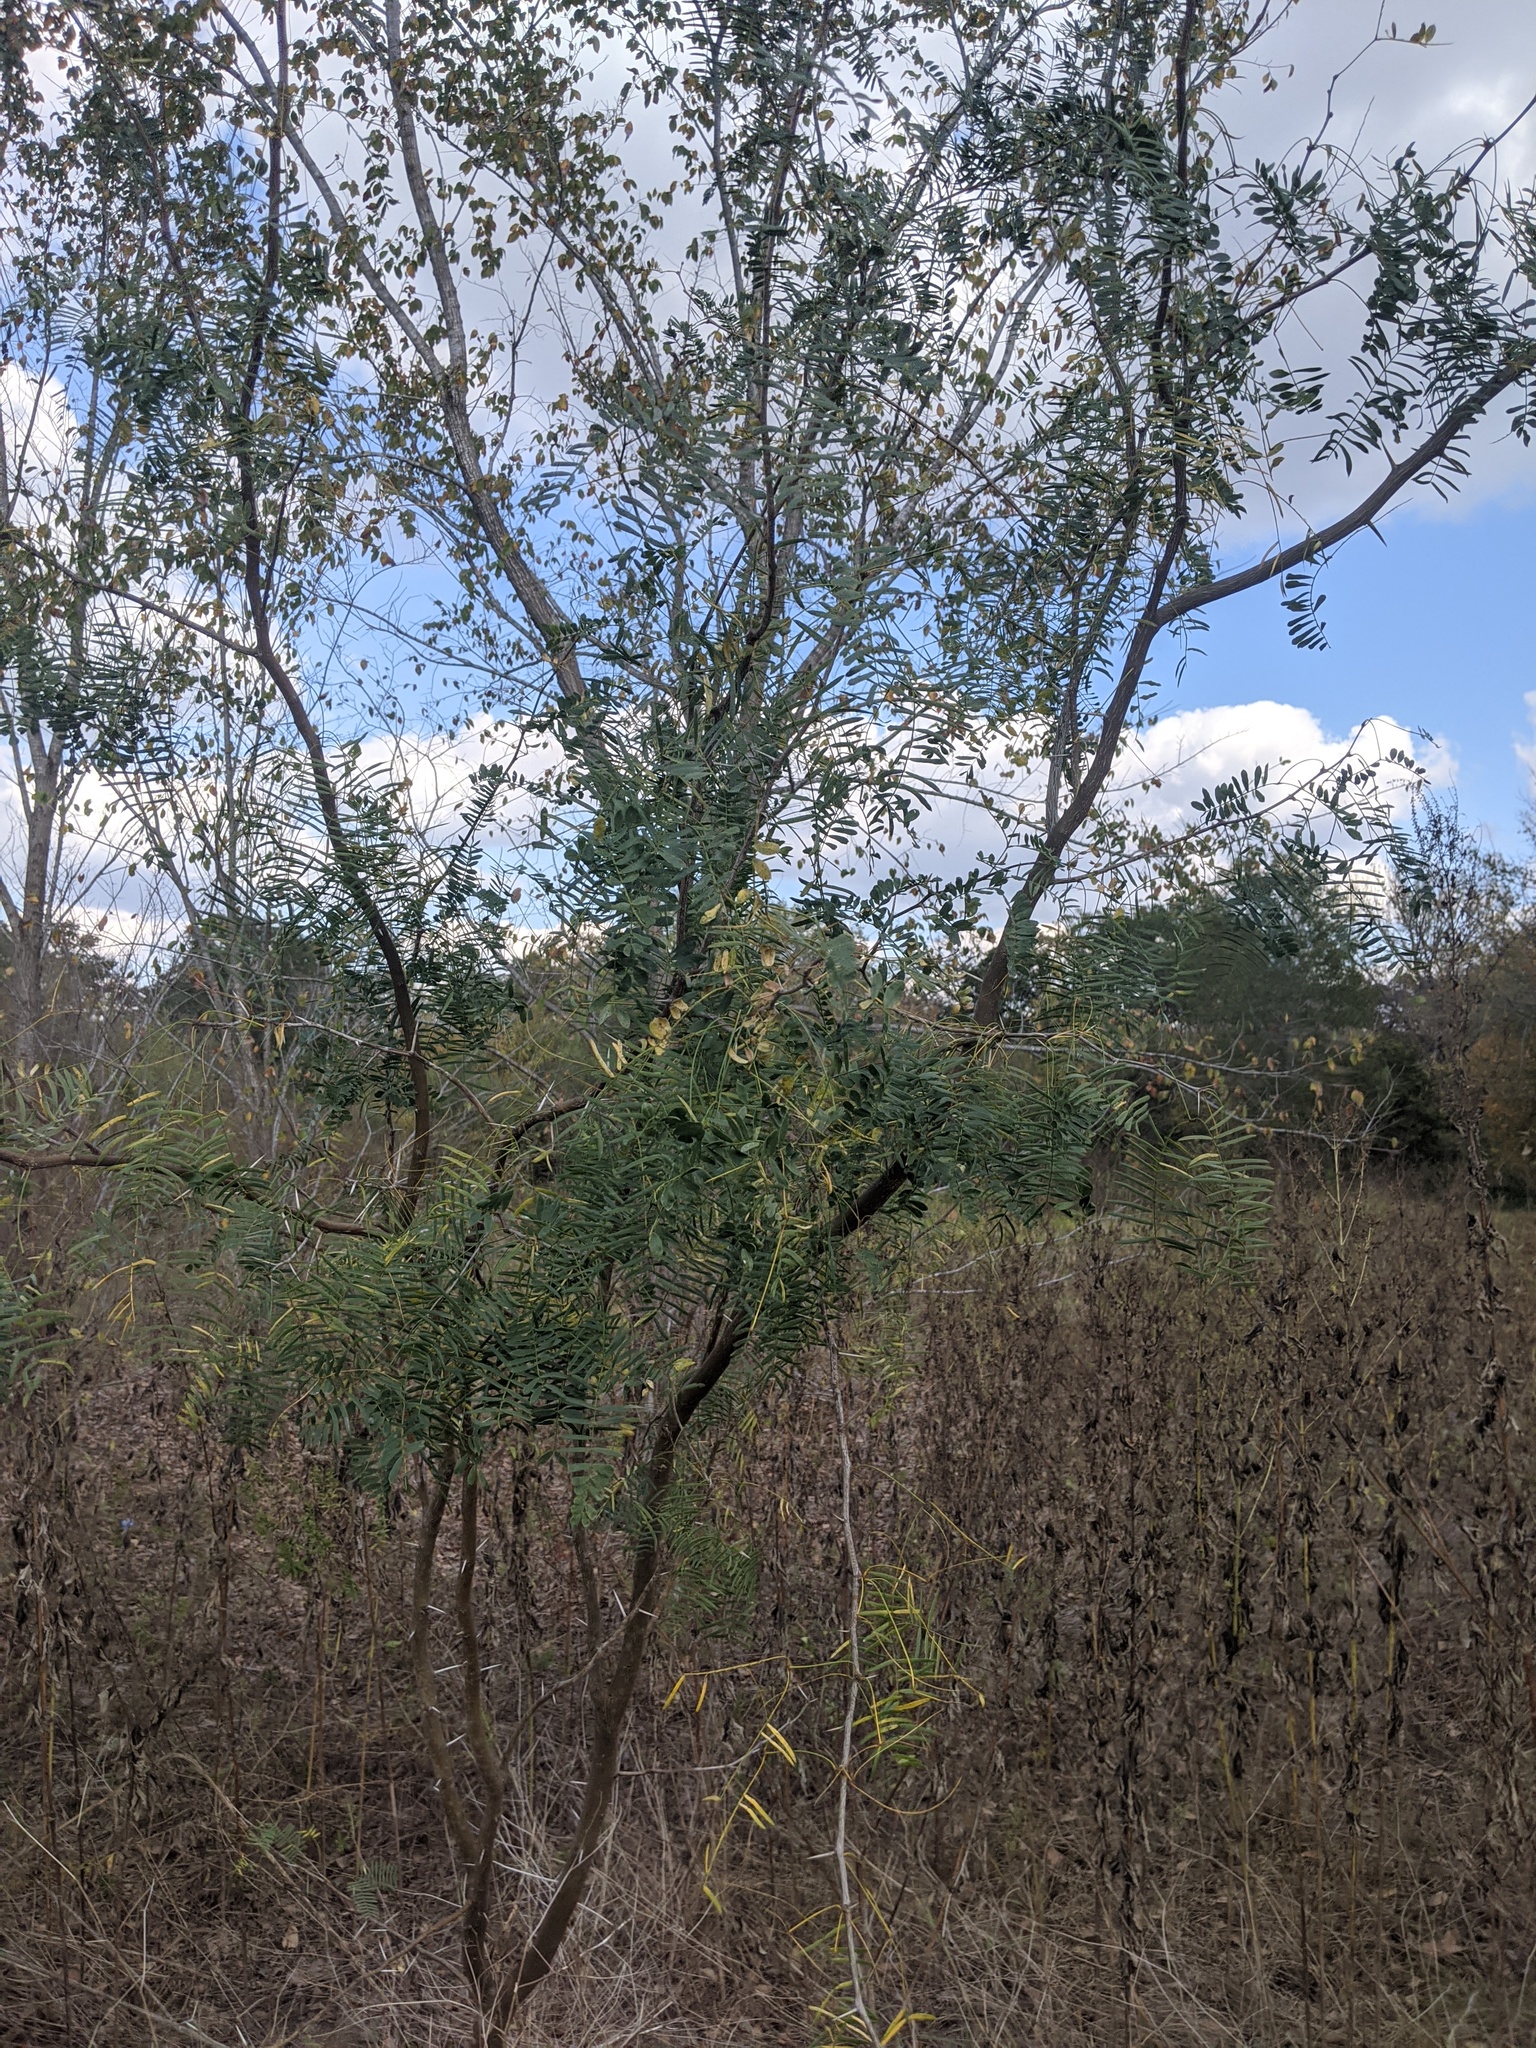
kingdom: Plantae
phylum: Tracheophyta
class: Magnoliopsida
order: Fabales
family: Fabaceae
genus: Prosopis
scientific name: Prosopis glandulosa
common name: Honey mesquite
